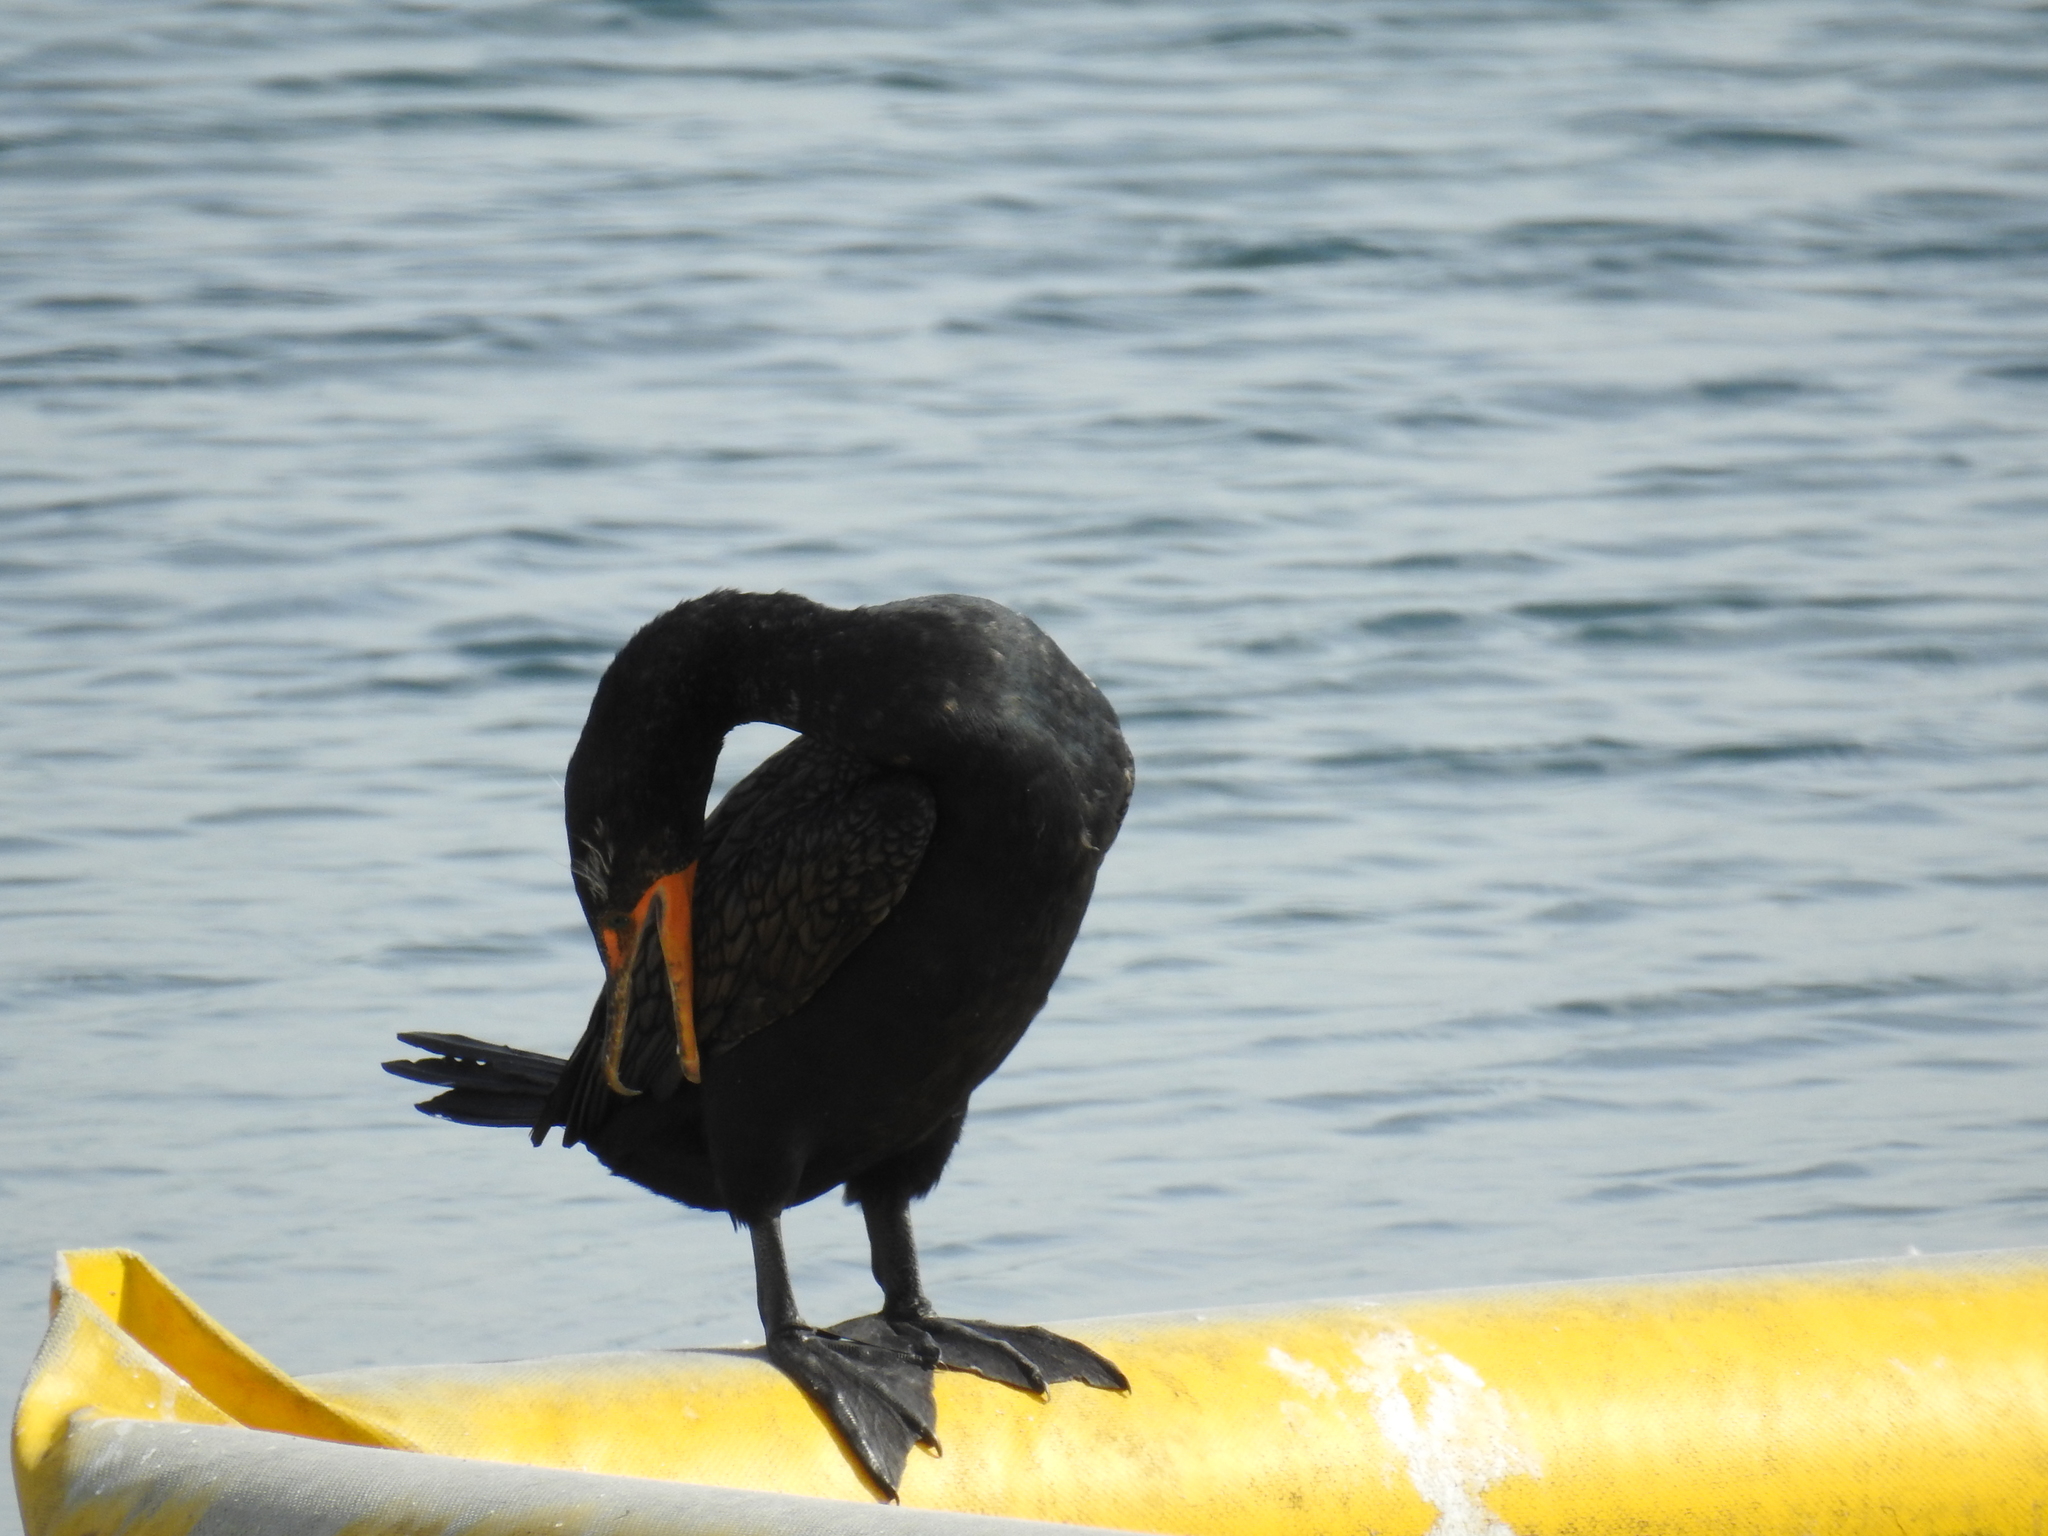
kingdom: Animalia
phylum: Chordata
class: Aves
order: Suliformes
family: Phalacrocoracidae
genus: Phalacrocorax
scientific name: Phalacrocorax auritus
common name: Double-crested cormorant
